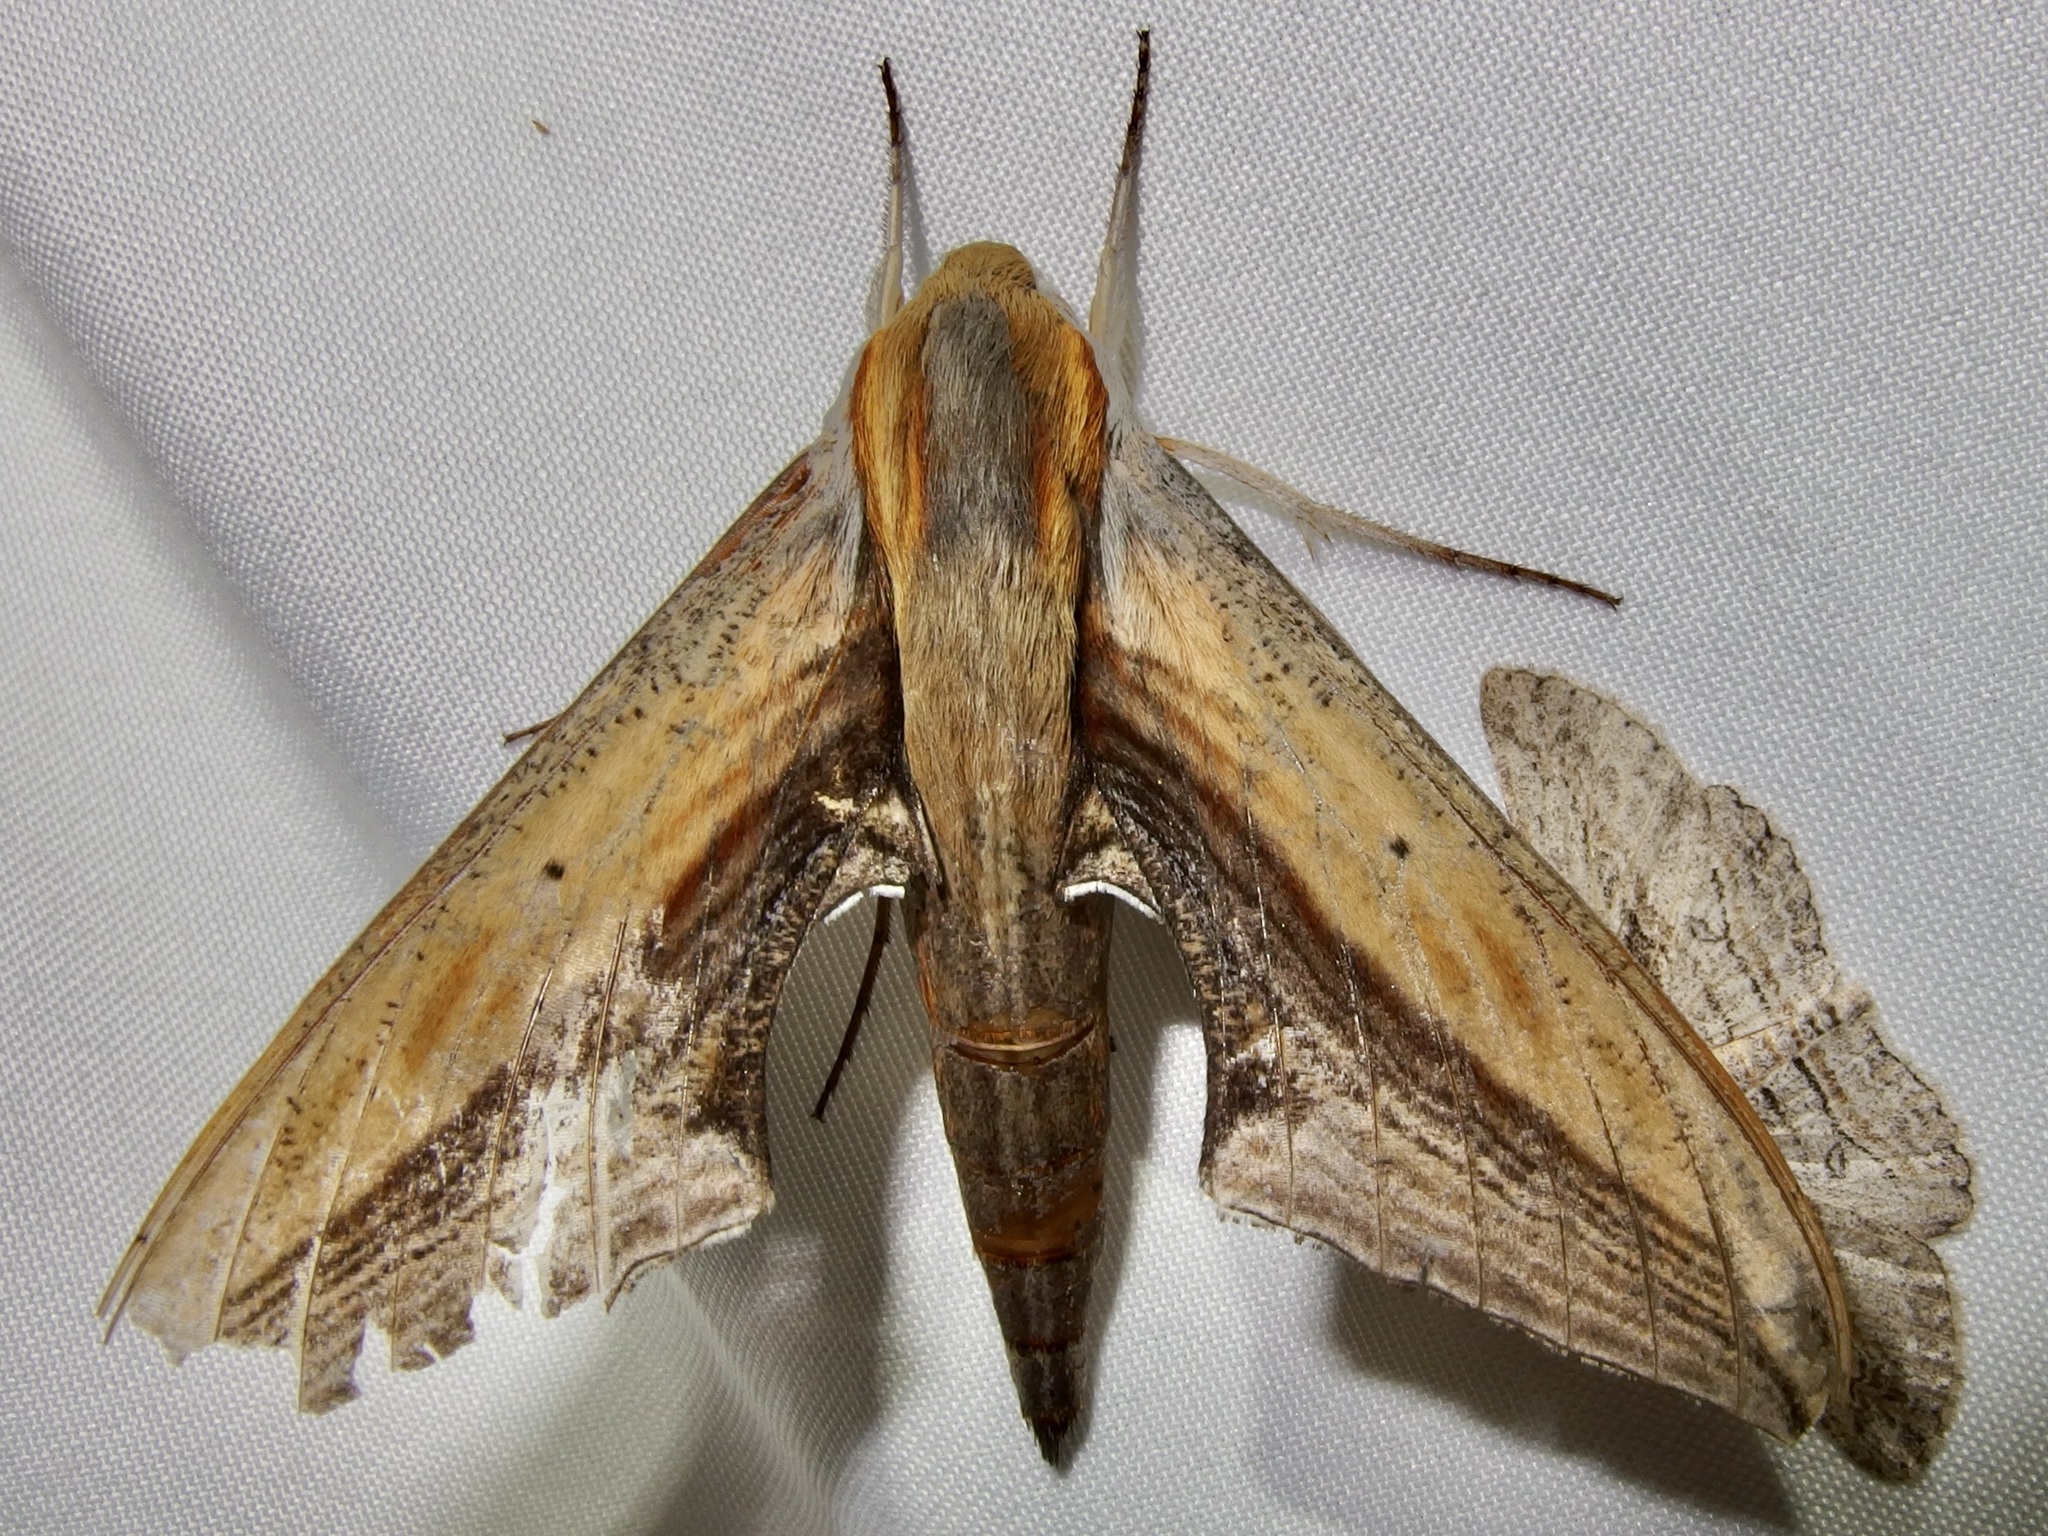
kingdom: Animalia
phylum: Arthropoda
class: Insecta
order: Lepidoptera
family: Sphingidae
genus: Xylophanes
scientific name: Xylophanes falco
